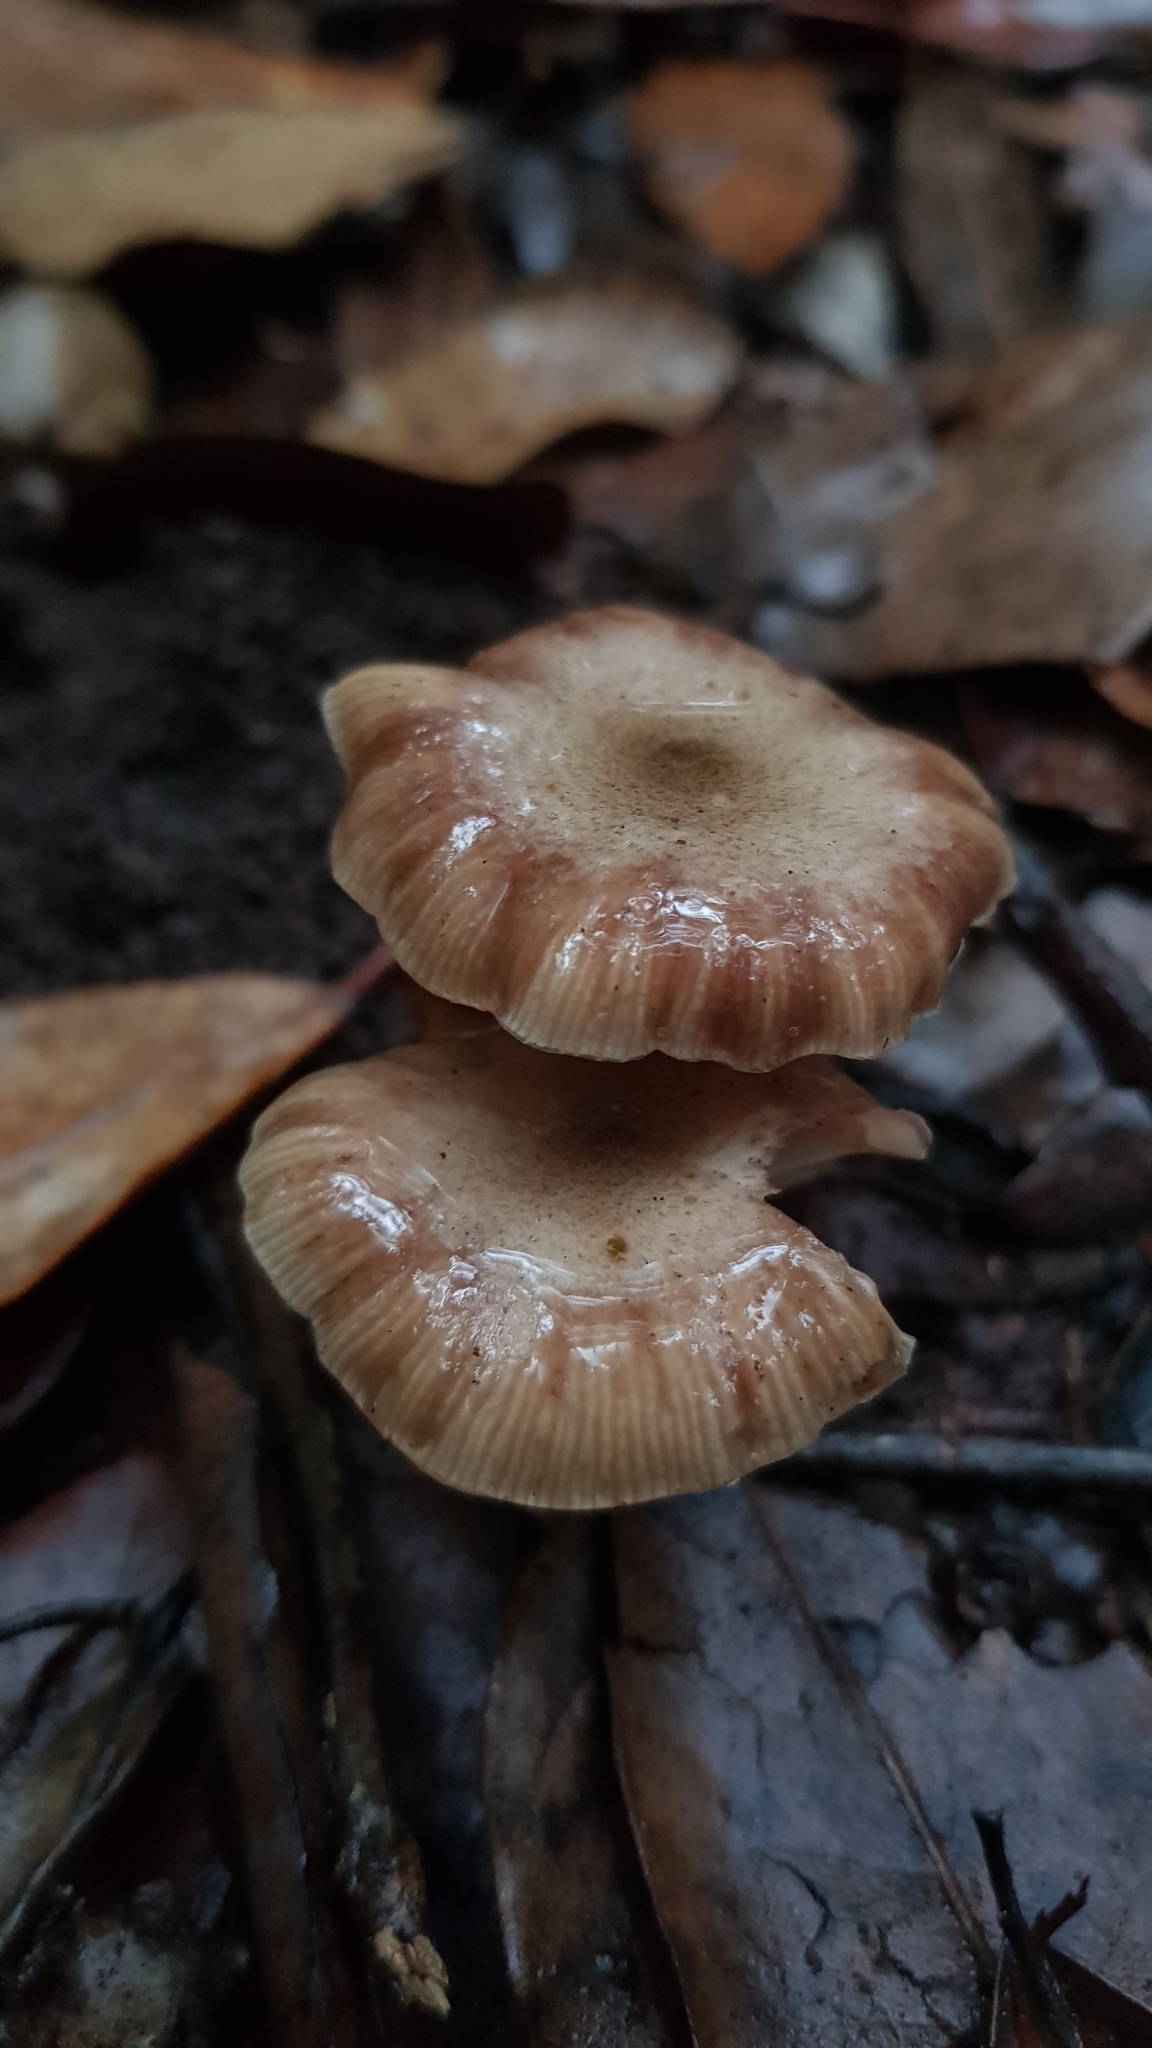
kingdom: Fungi
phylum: Basidiomycota
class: Agaricomycetes
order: Agaricales
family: Physalacriaceae
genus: Armillaria
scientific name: Armillaria novae-zelandiae
